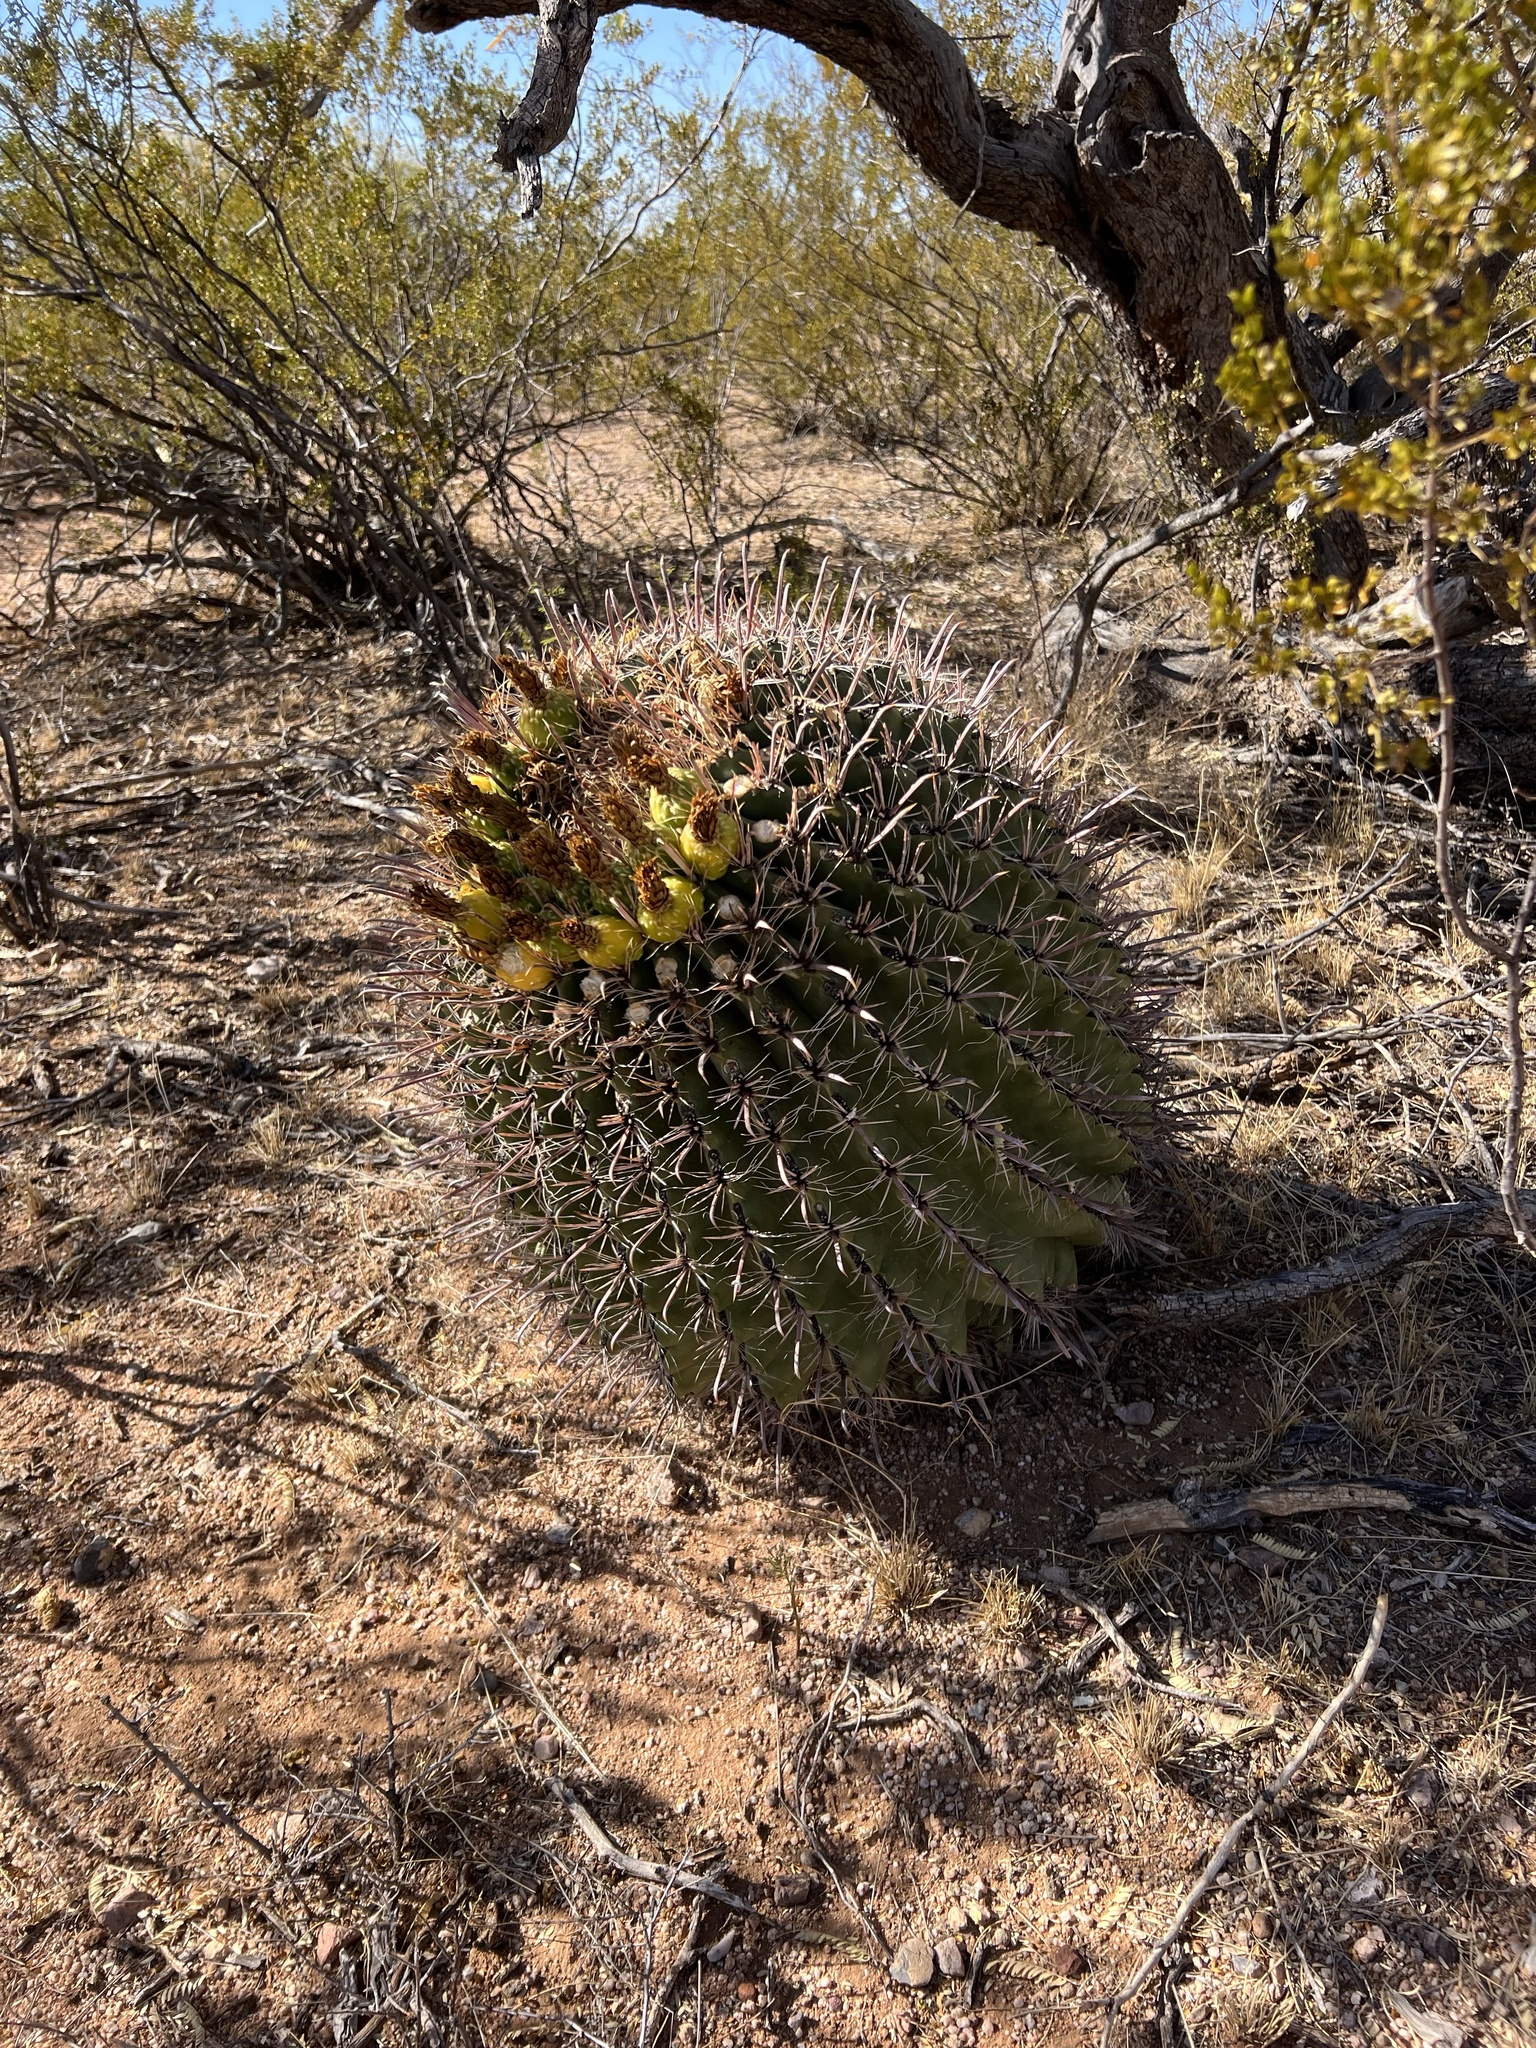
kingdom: Plantae
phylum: Tracheophyta
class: Magnoliopsida
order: Caryophyllales
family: Cactaceae
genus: Ferocactus
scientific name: Ferocactus wislizeni
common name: Candy barrel cactus
